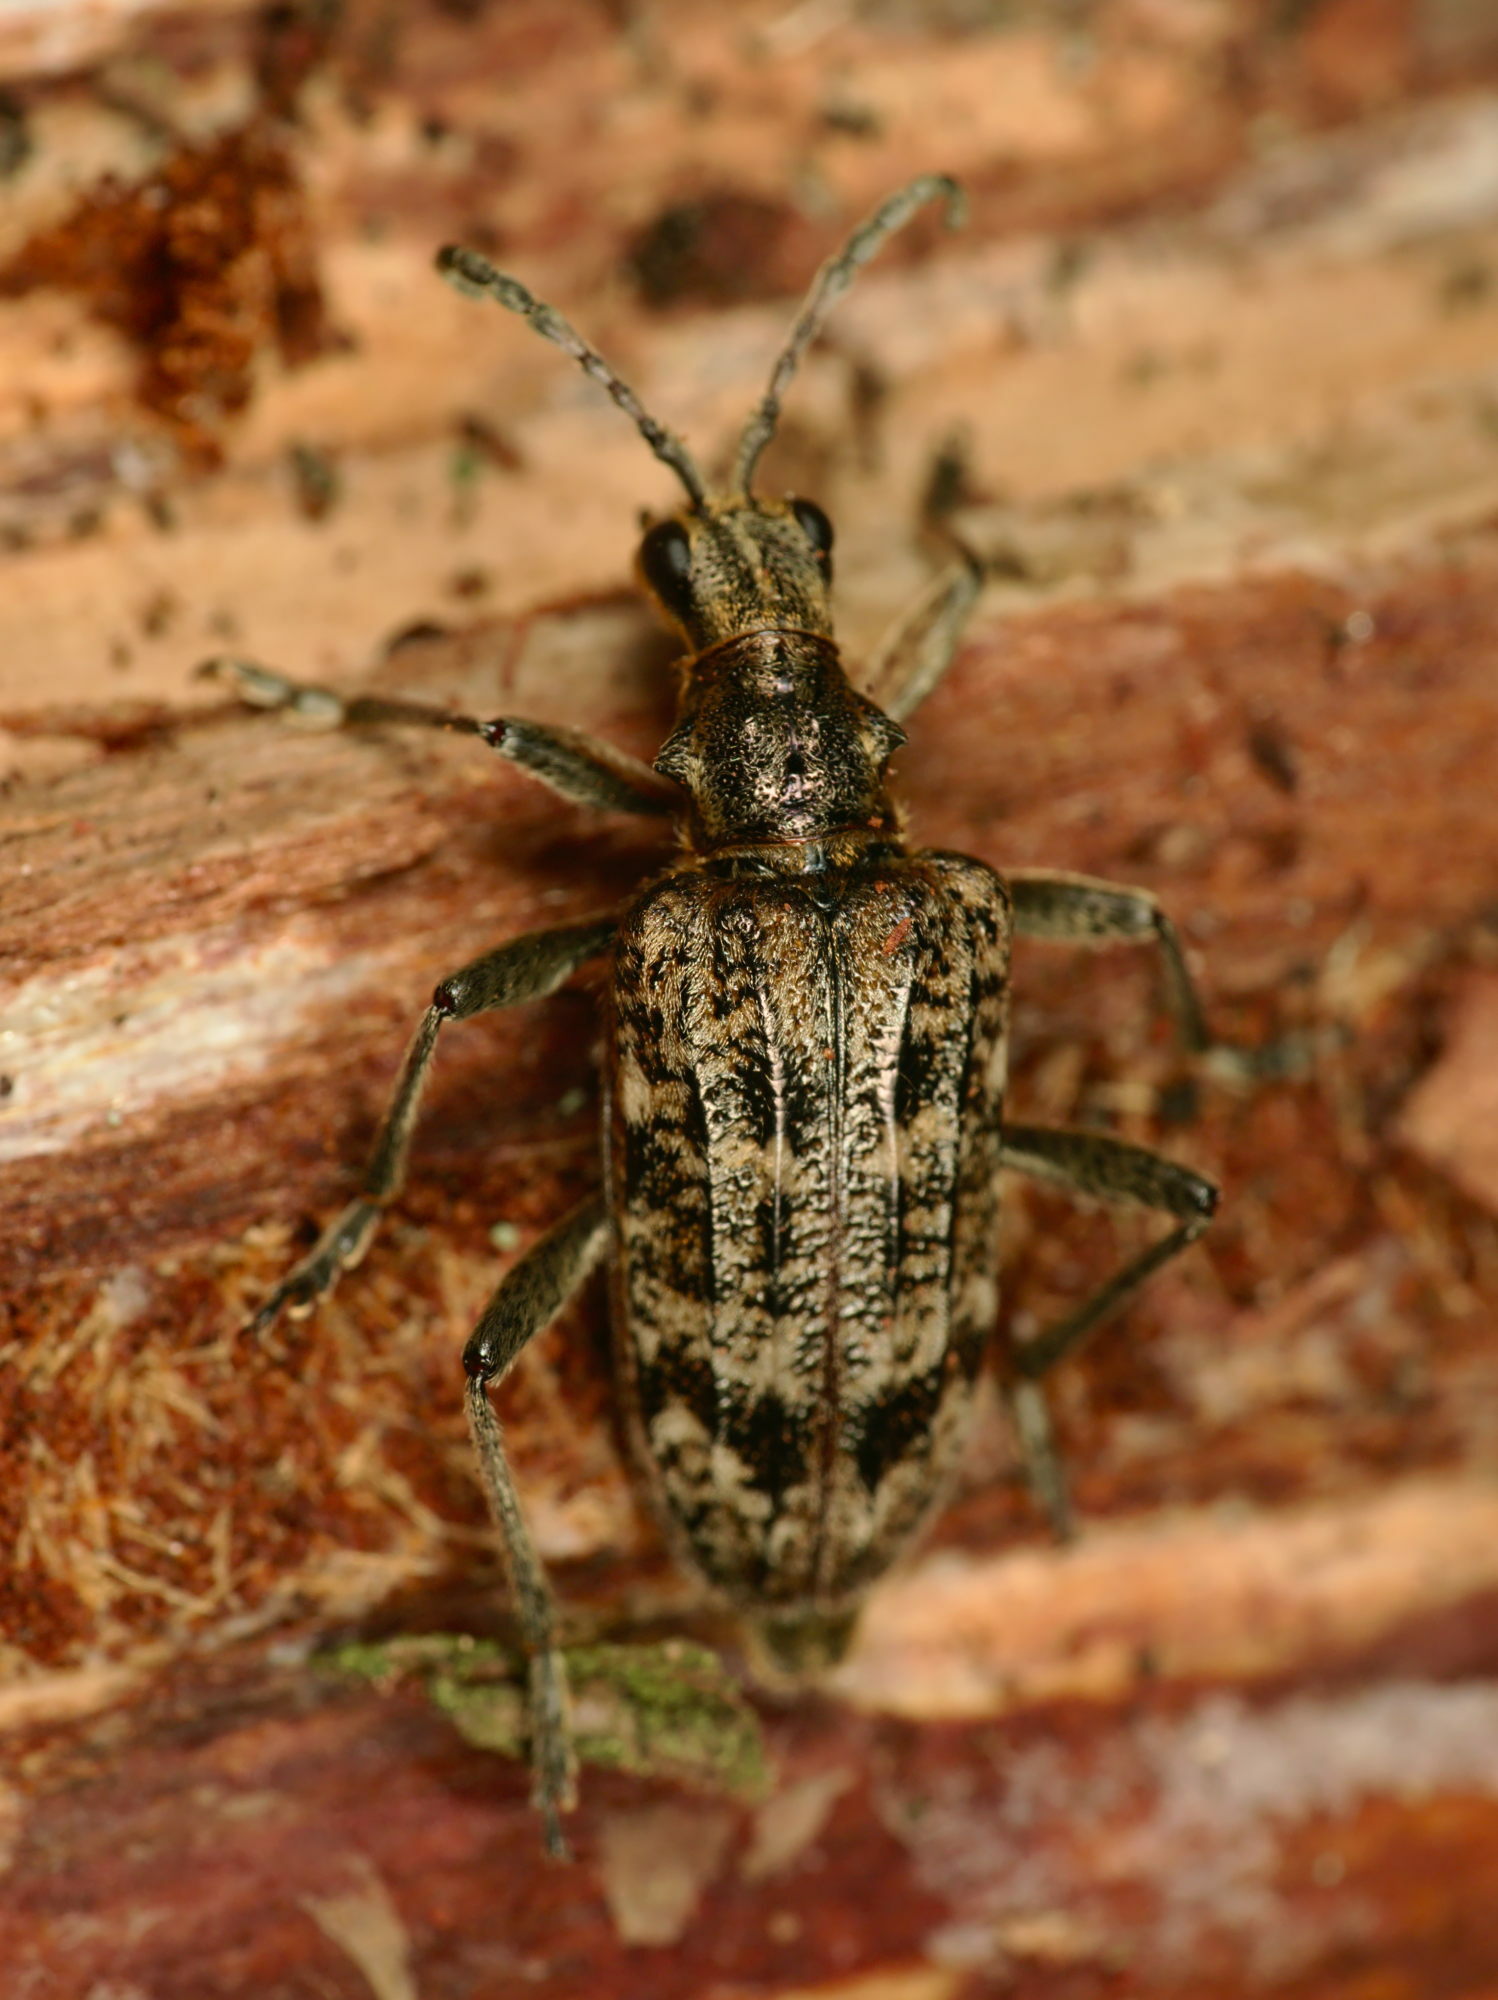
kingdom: Animalia
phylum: Arthropoda
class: Insecta
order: Coleoptera
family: Cerambycidae
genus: Rhagium
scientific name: Rhagium inquisitor
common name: Ribbed pine borer
